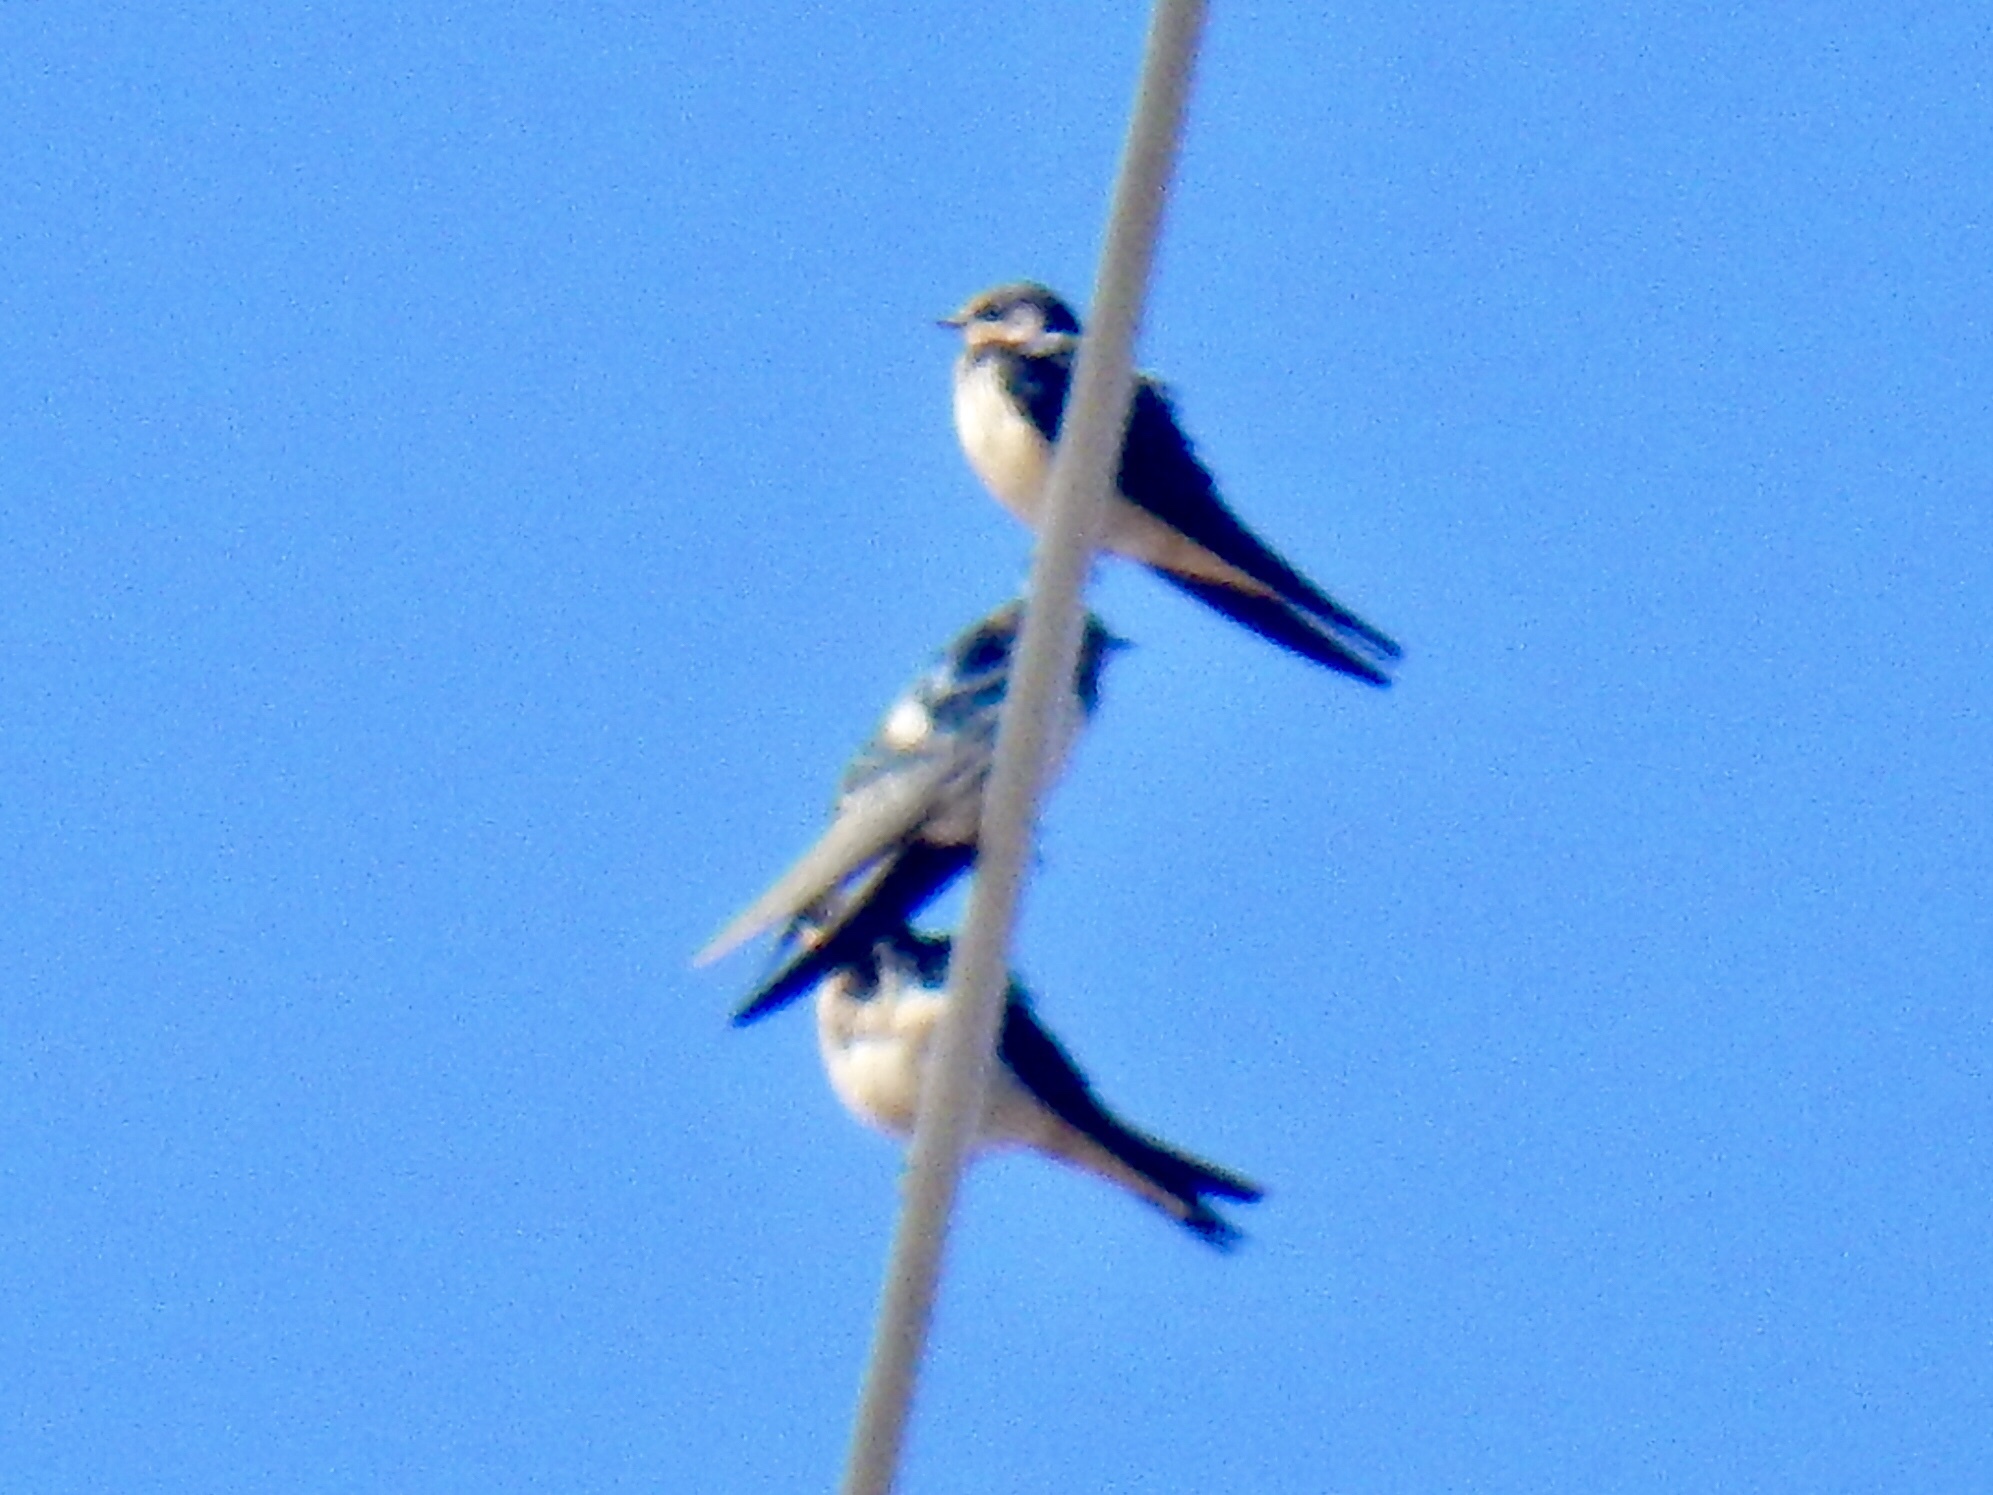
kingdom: Animalia
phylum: Chordata
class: Aves
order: Passeriformes
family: Hirundinidae
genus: Hirundo
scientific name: Hirundo rustica
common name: Barn swallow
